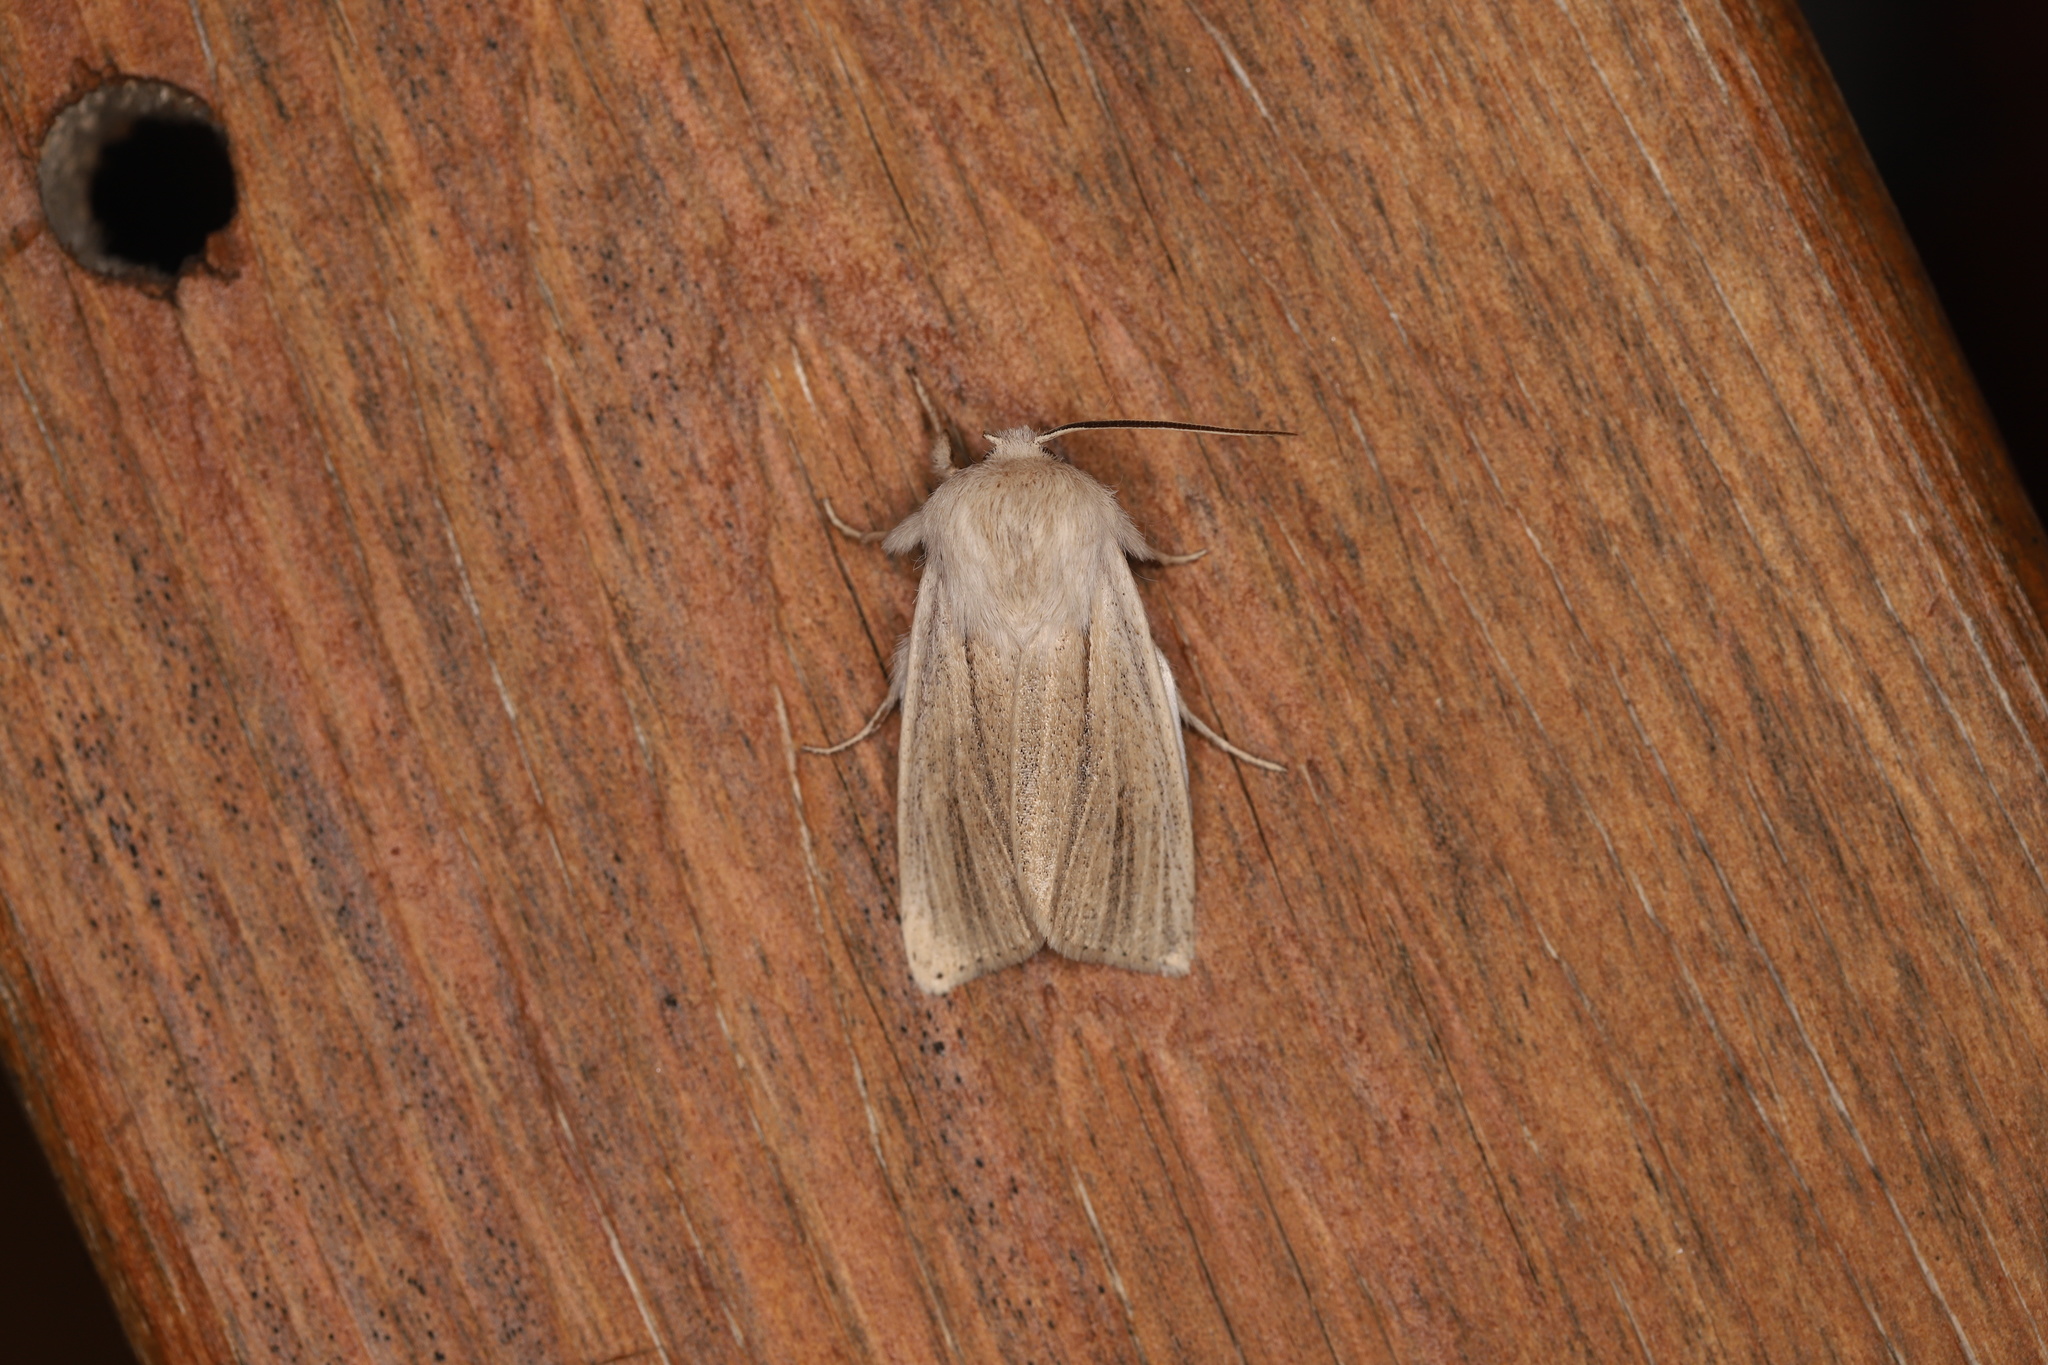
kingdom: Animalia
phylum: Arthropoda
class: Insecta
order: Lepidoptera
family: Noctuidae
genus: Simyra
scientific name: Simyra albovenosa
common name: Reed dagger
